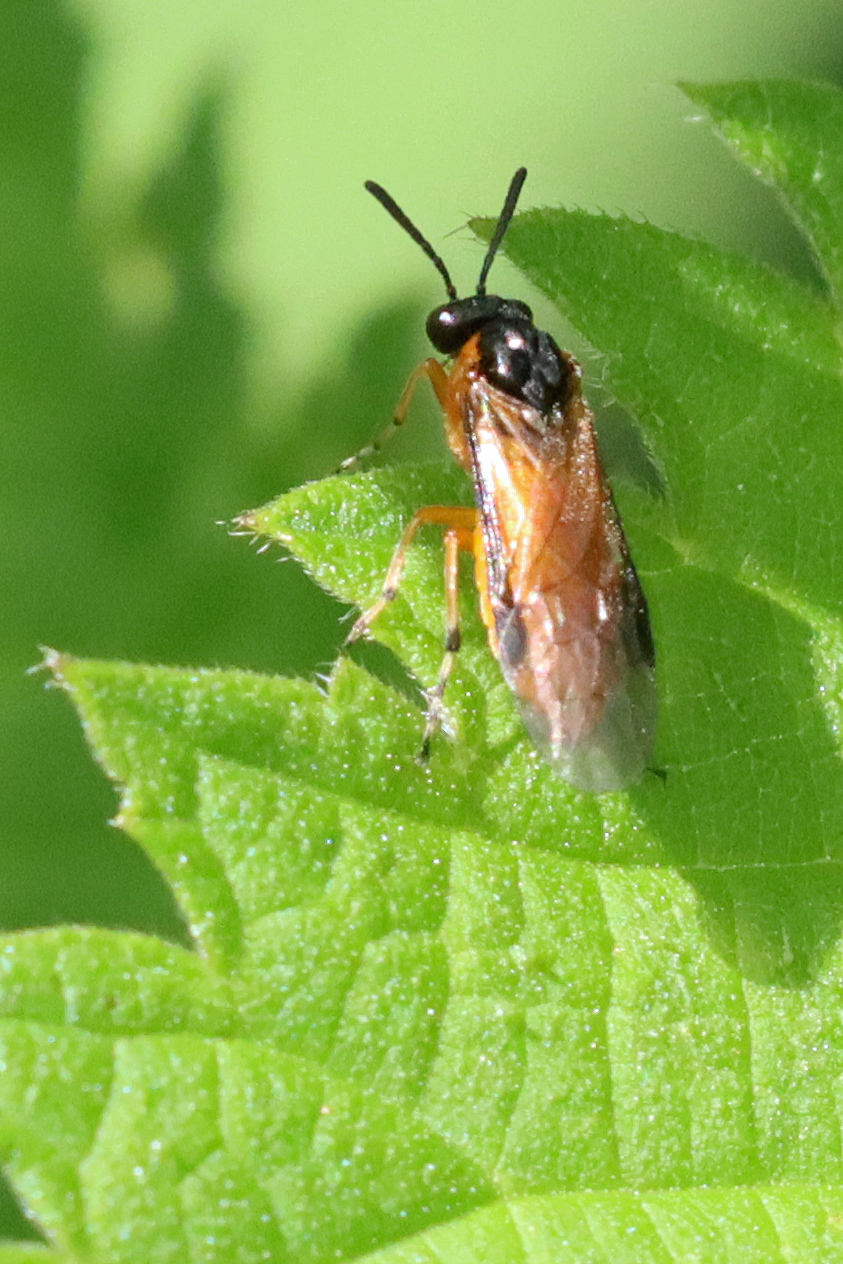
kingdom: Animalia
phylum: Arthropoda
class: Insecta
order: Hymenoptera
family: Tenthredinidae
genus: Athalia
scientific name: Athalia
